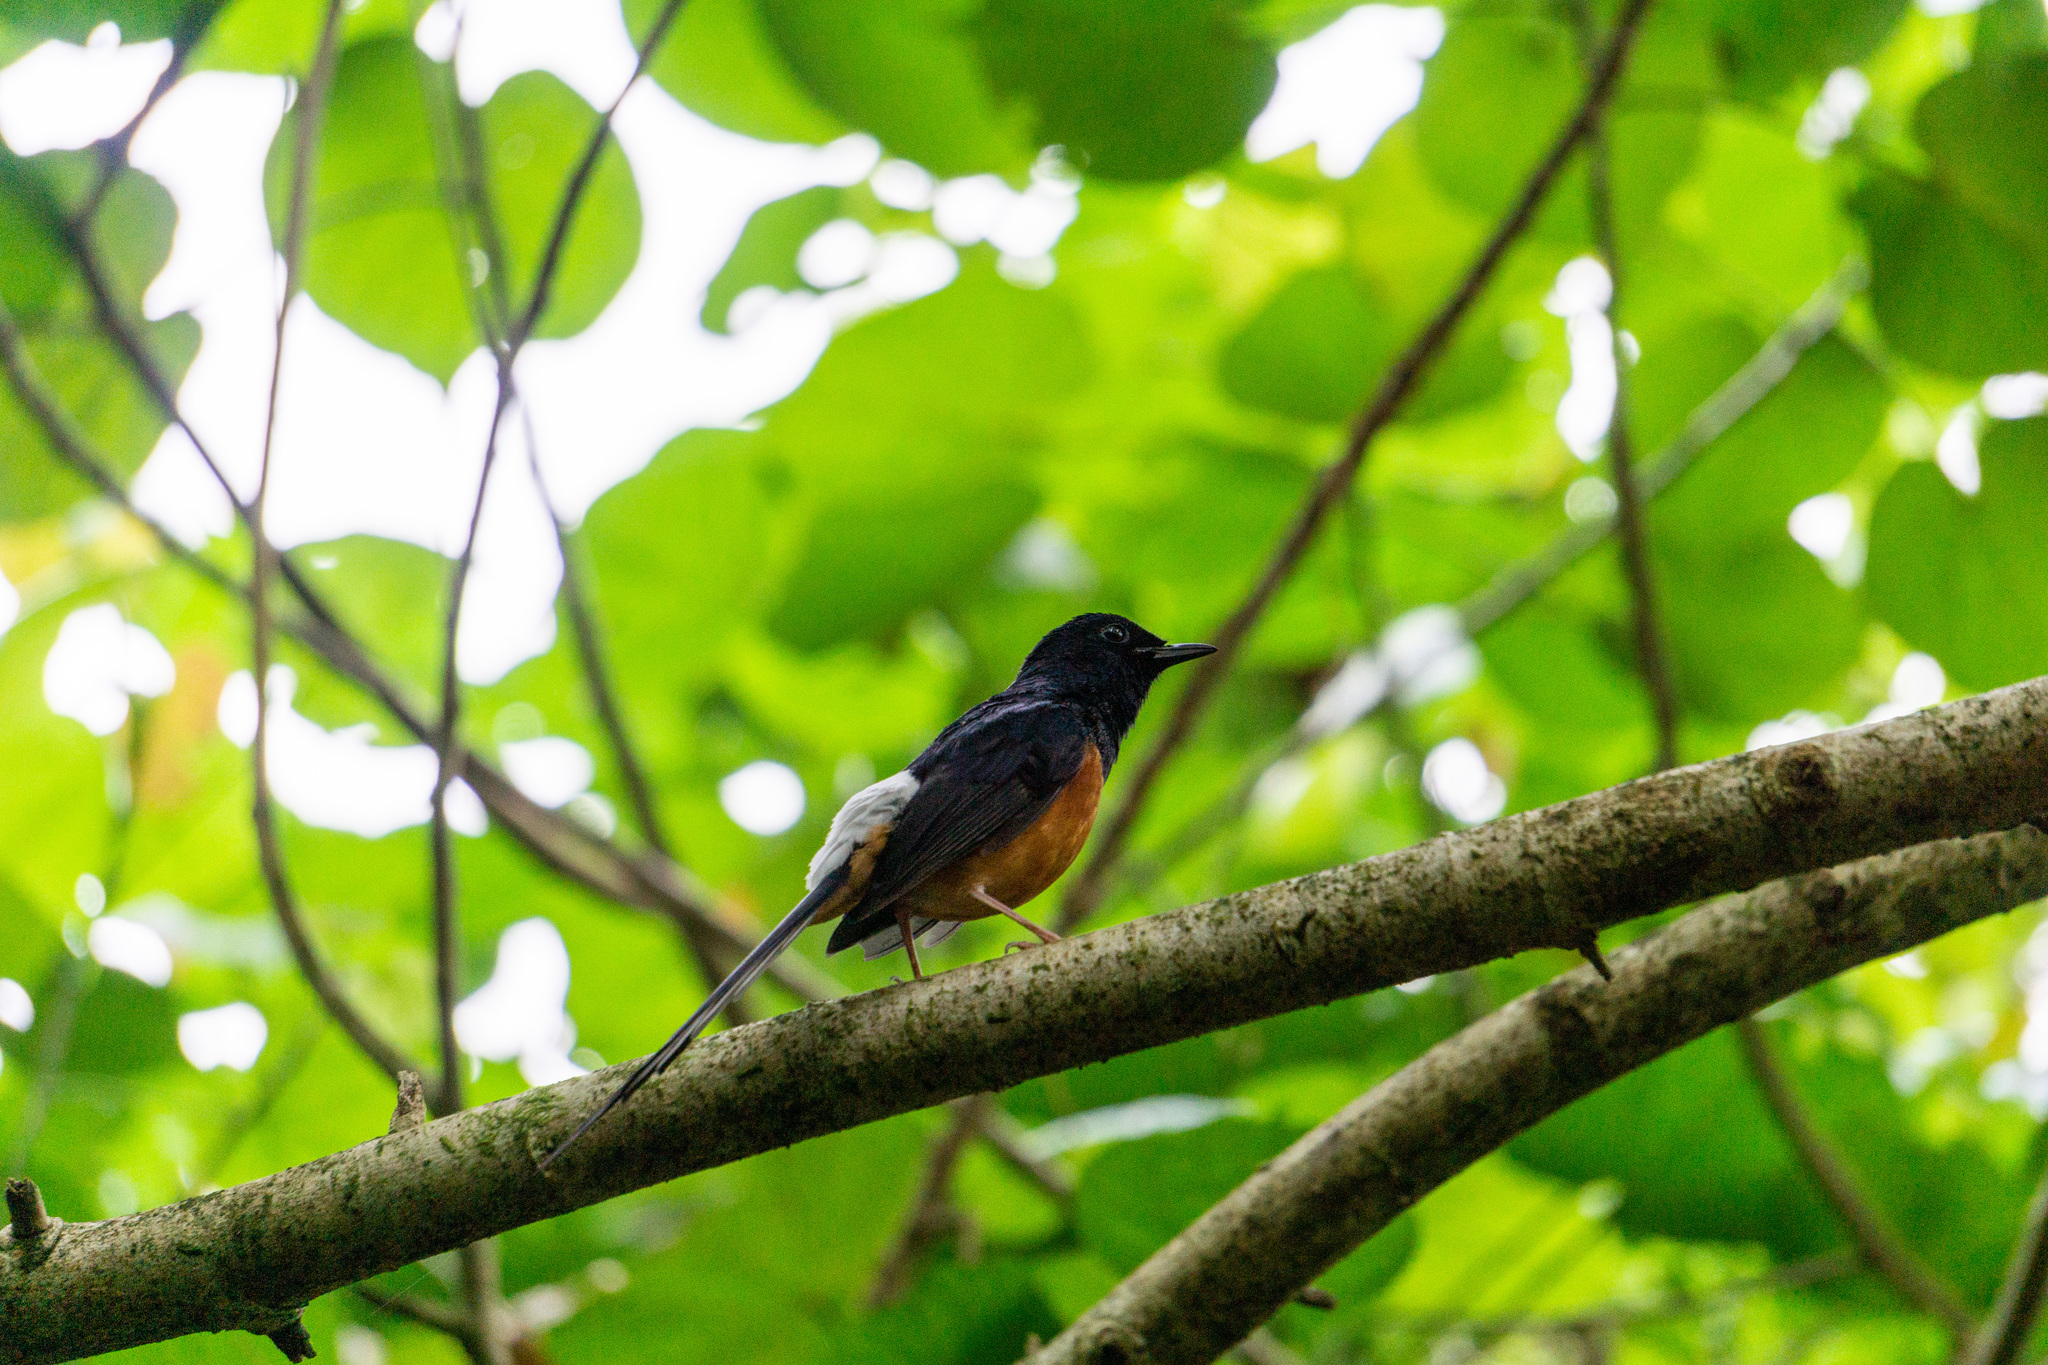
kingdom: Animalia
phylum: Chordata
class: Aves
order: Passeriformes
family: Muscicapidae
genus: Copsychus
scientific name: Copsychus malabaricus
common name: White-rumped shama
